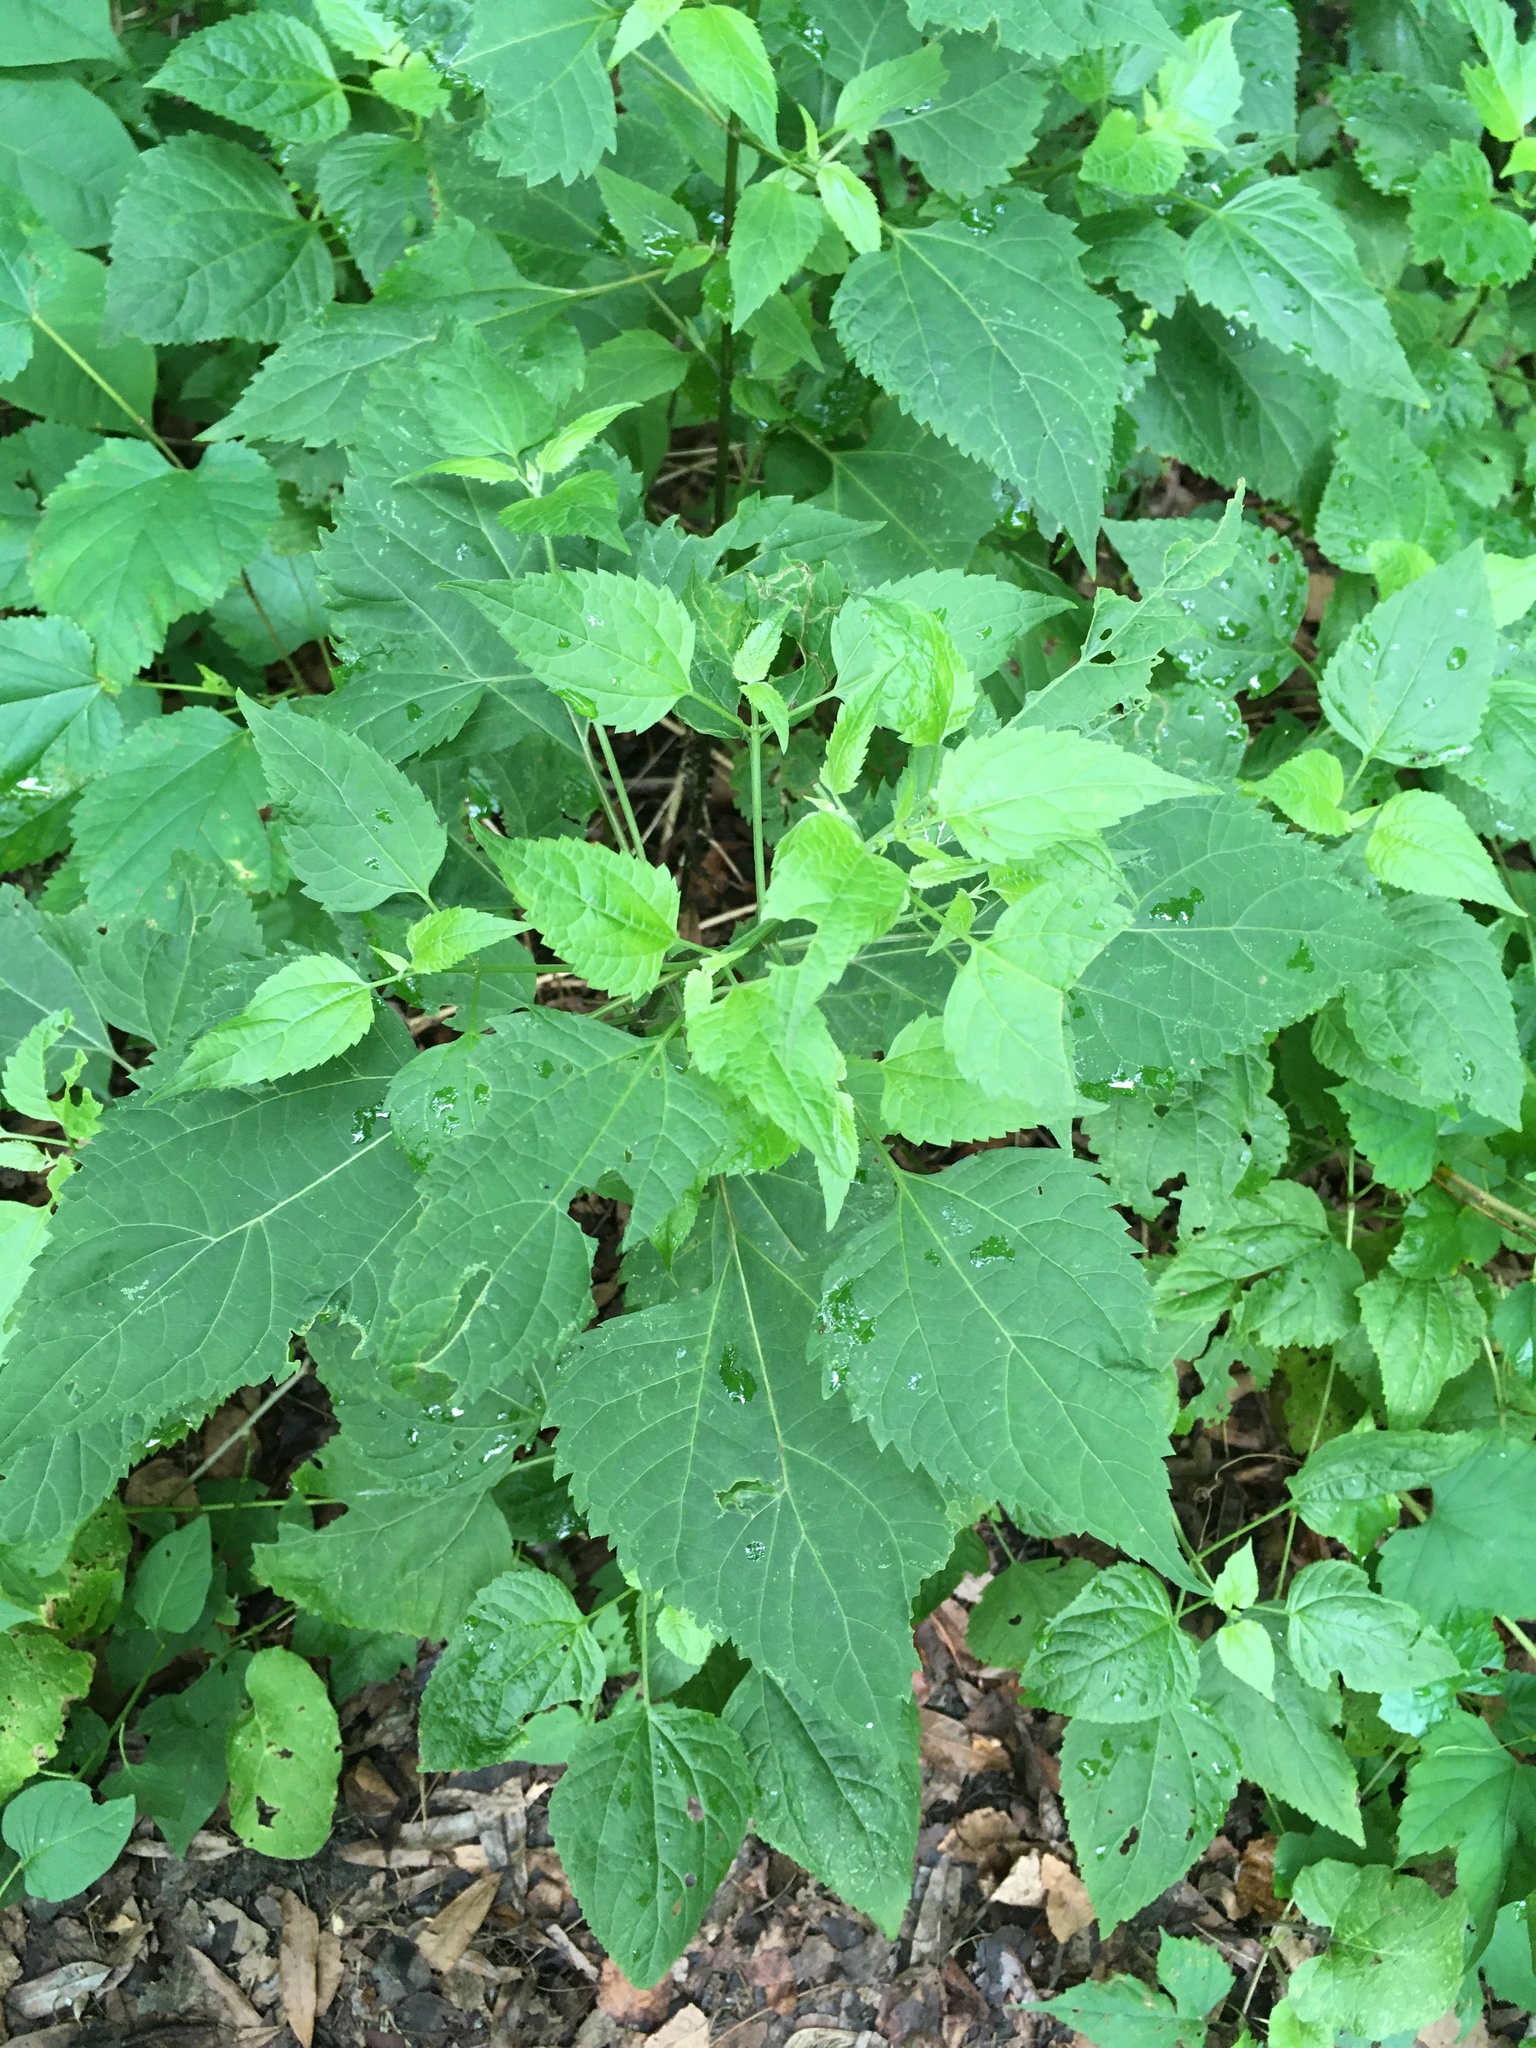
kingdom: Plantae
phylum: Tracheophyta
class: Magnoliopsida
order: Asterales
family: Asteraceae
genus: Ageratina
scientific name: Ageratina altissima
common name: White snakeroot
